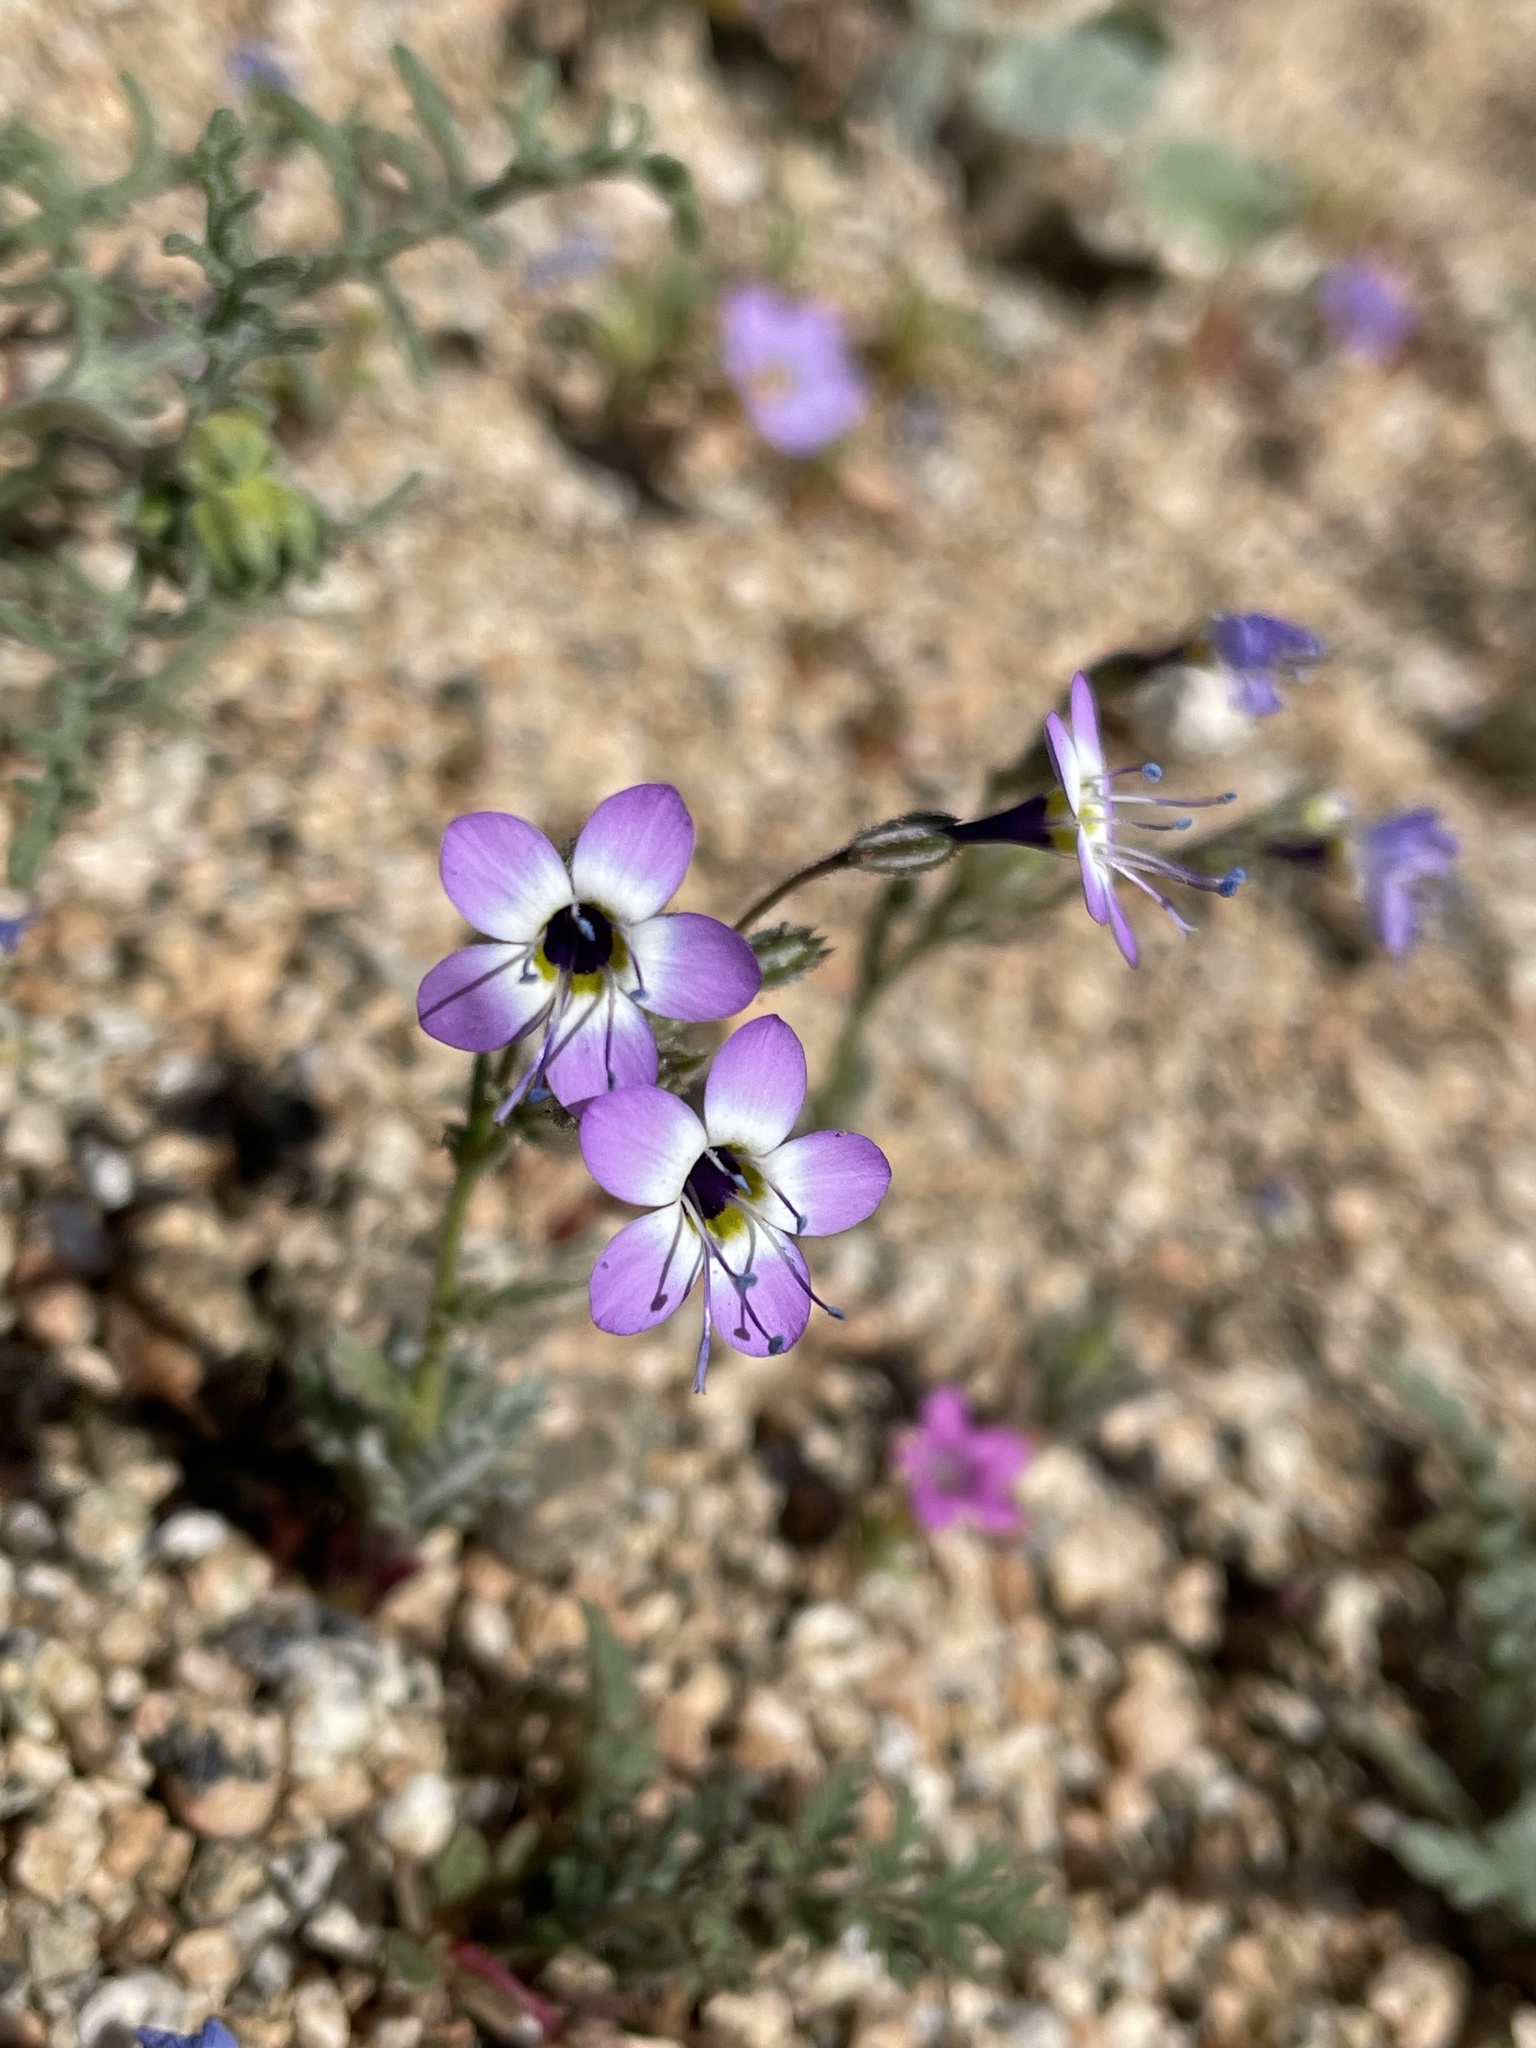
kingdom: Plantae
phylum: Tracheophyta
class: Magnoliopsida
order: Ericales
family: Polemoniaceae
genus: Gilia
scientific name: Gilia brecciarum
